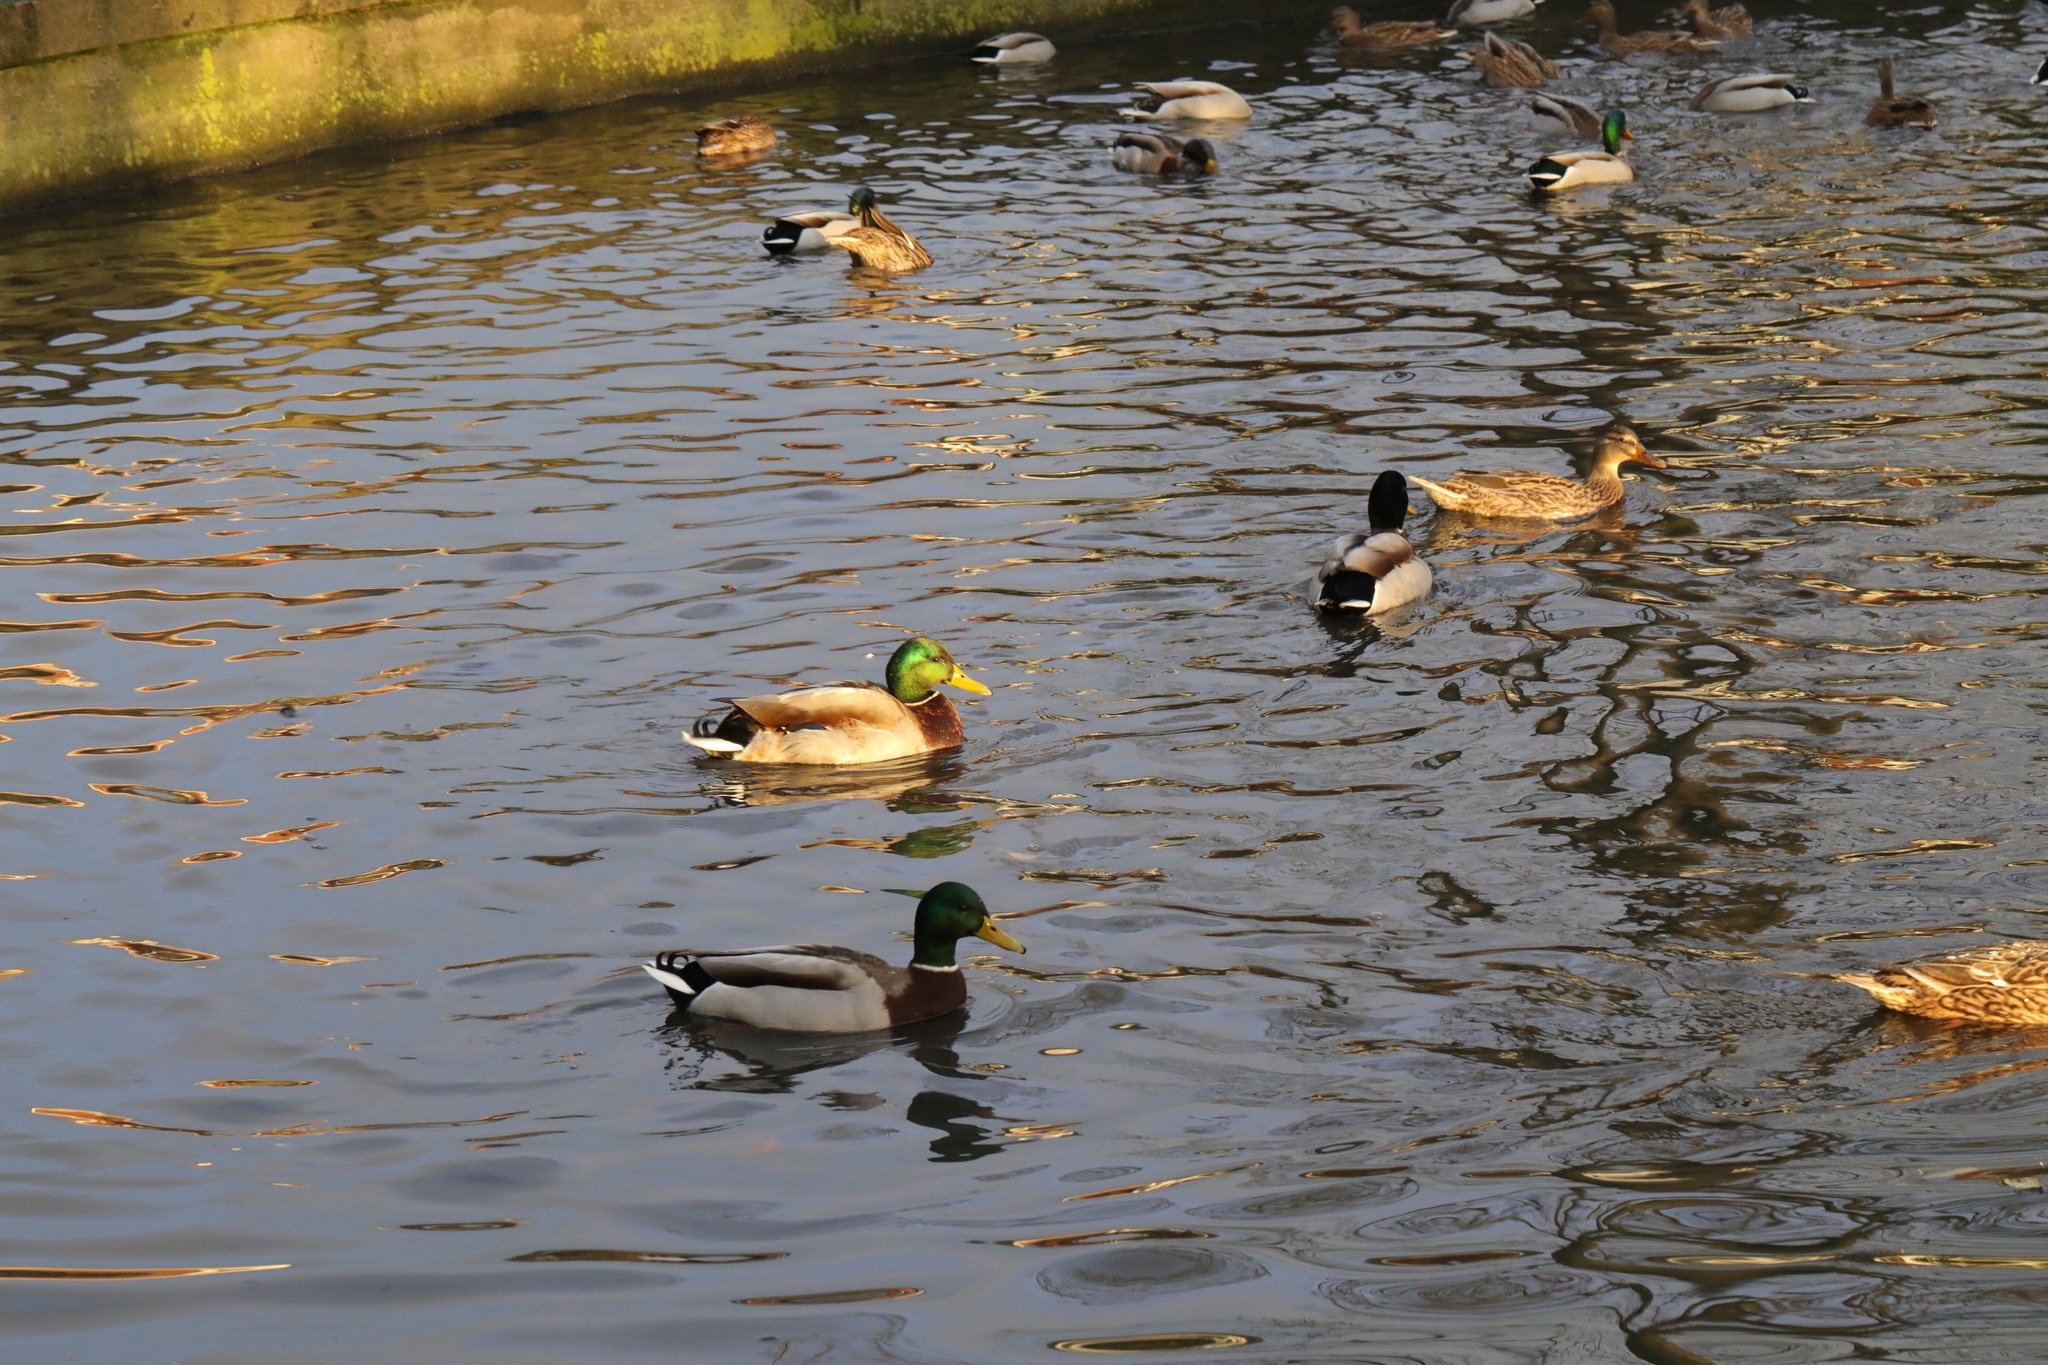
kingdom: Animalia
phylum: Chordata
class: Aves
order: Anseriformes
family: Anatidae
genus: Anas
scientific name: Anas platyrhynchos
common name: Mallard
